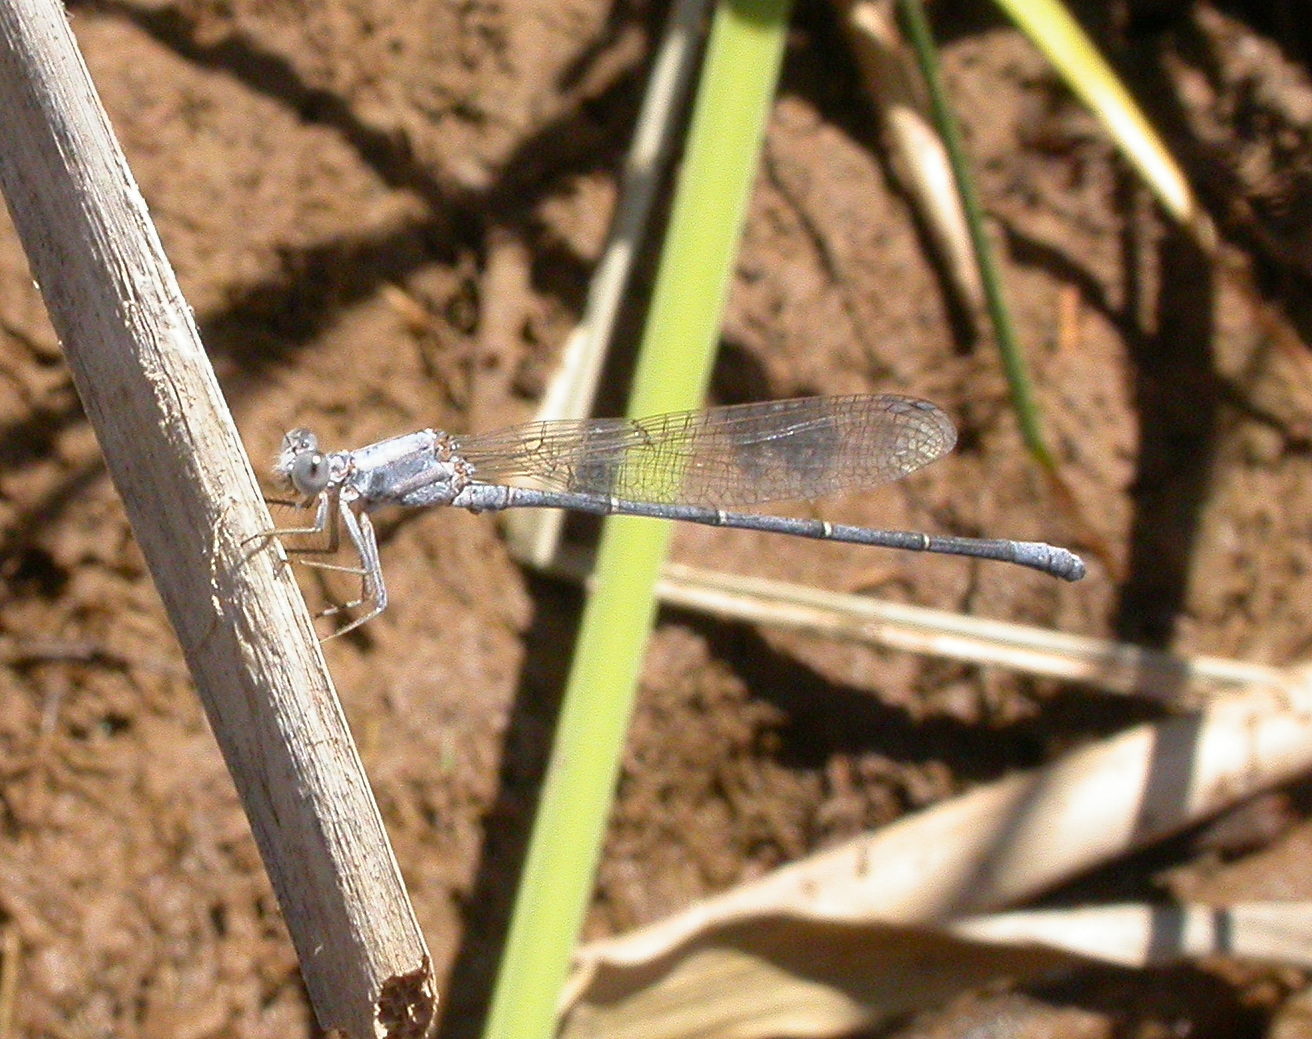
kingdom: Animalia
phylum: Arthropoda
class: Insecta
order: Odonata
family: Coenagrionidae
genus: Argia
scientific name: Argia moesta
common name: Powdered dancer
